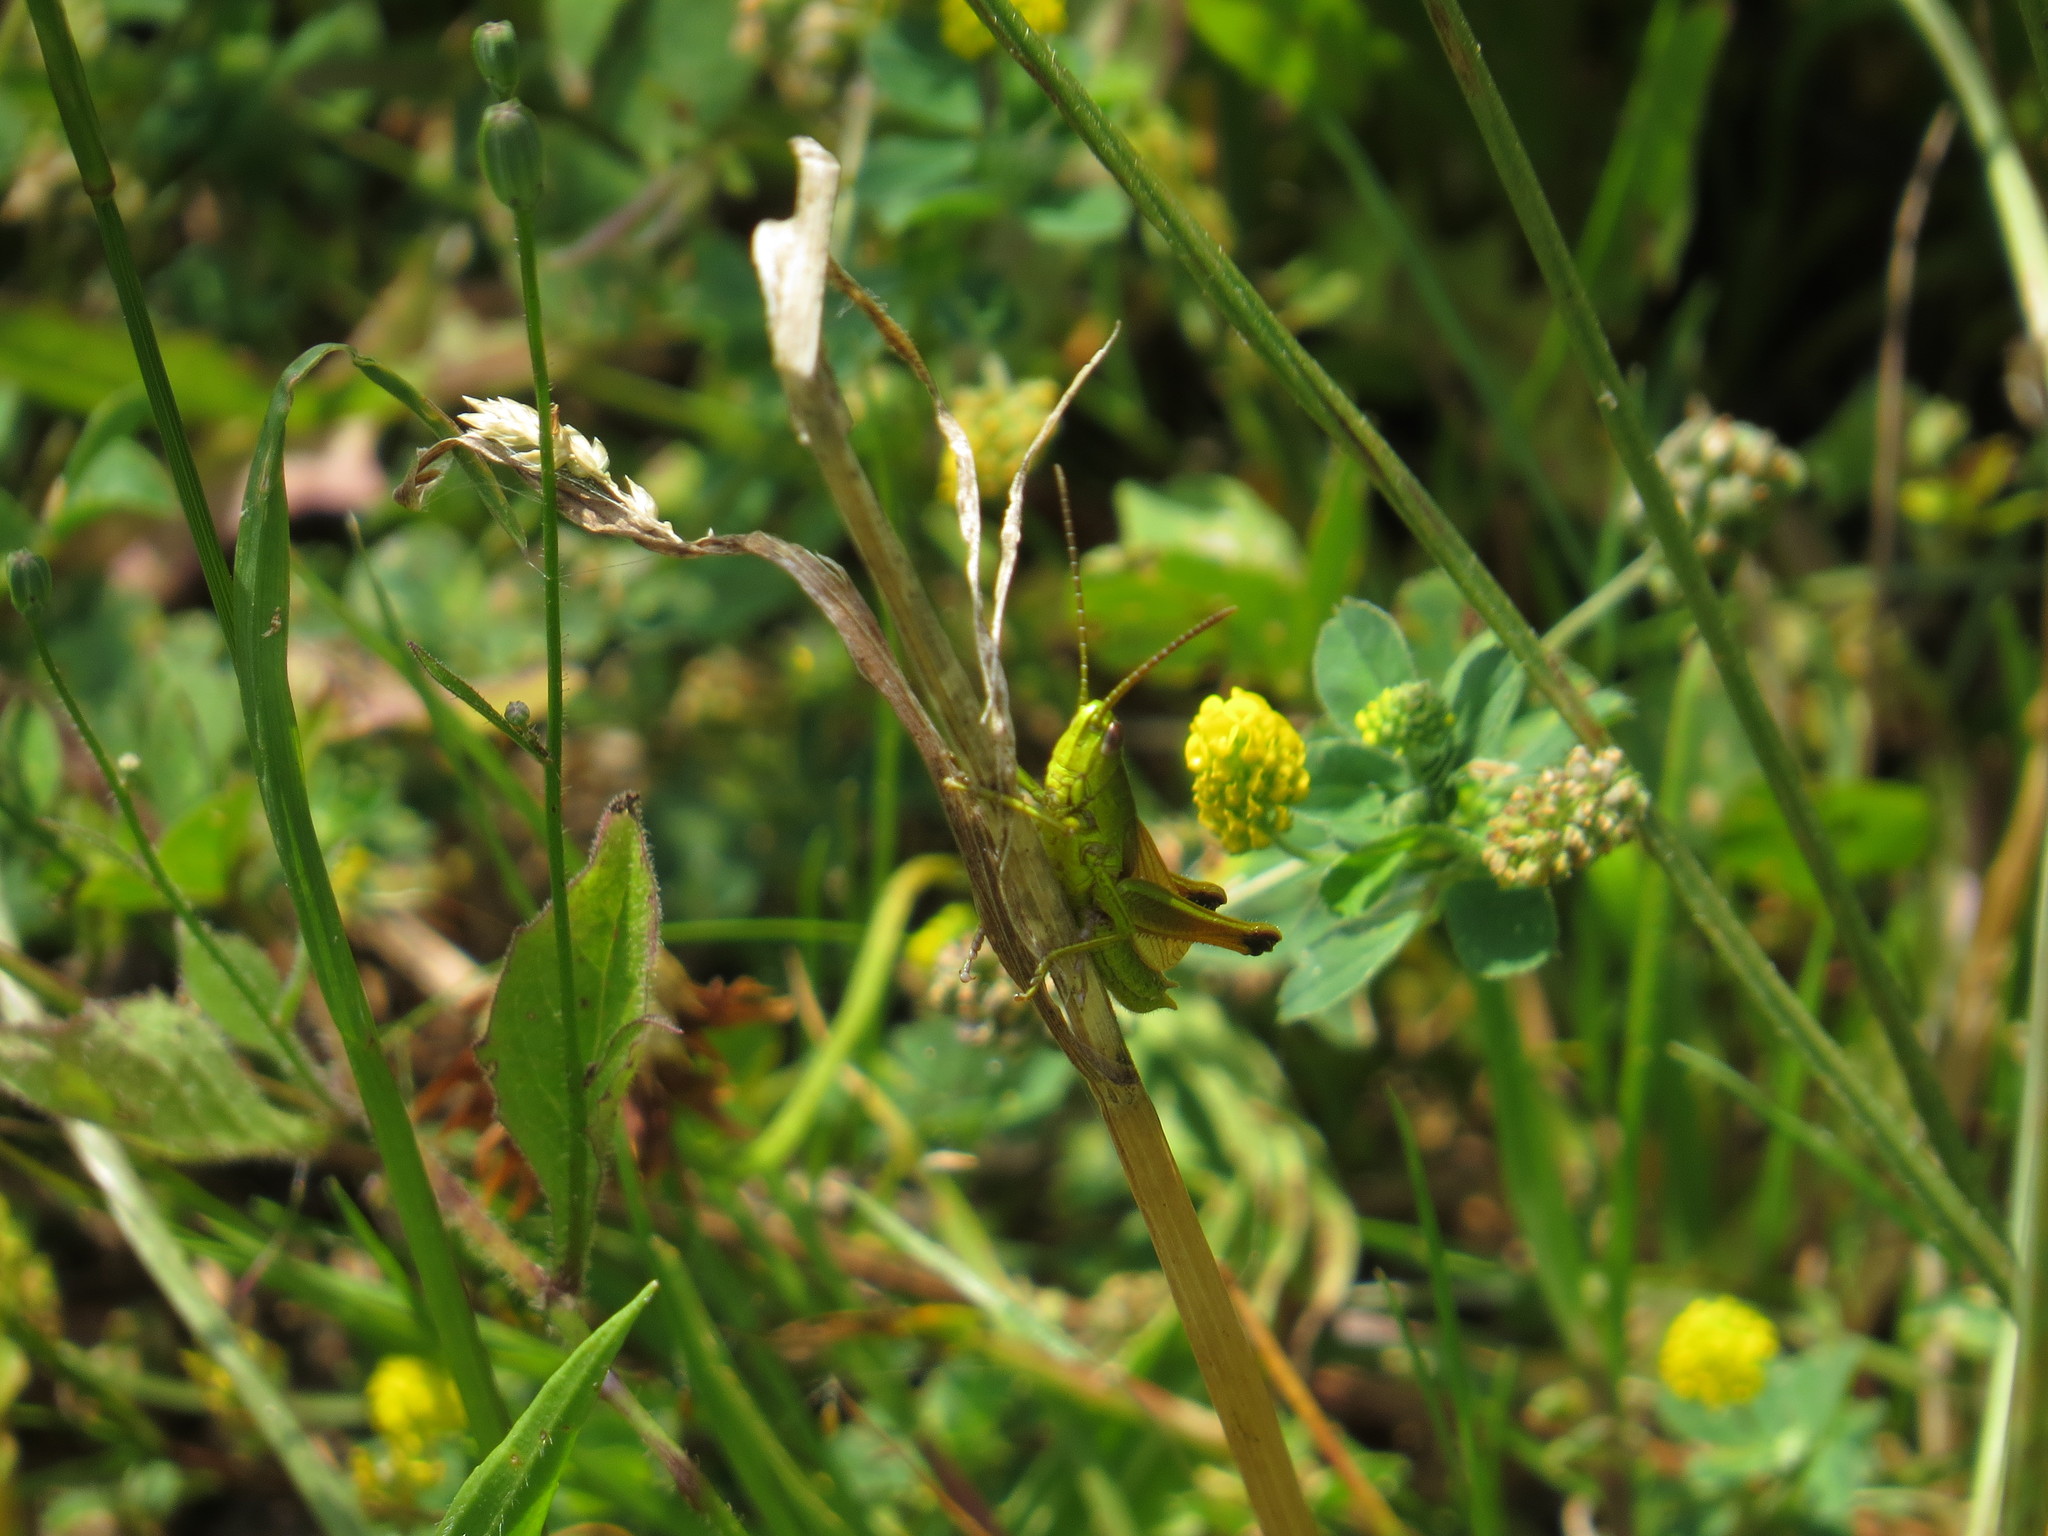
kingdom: Animalia
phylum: Arthropoda
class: Insecta
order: Orthoptera
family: Acrididae
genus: Chrysochraon
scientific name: Chrysochraon dispar
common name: Large gold grasshopper
